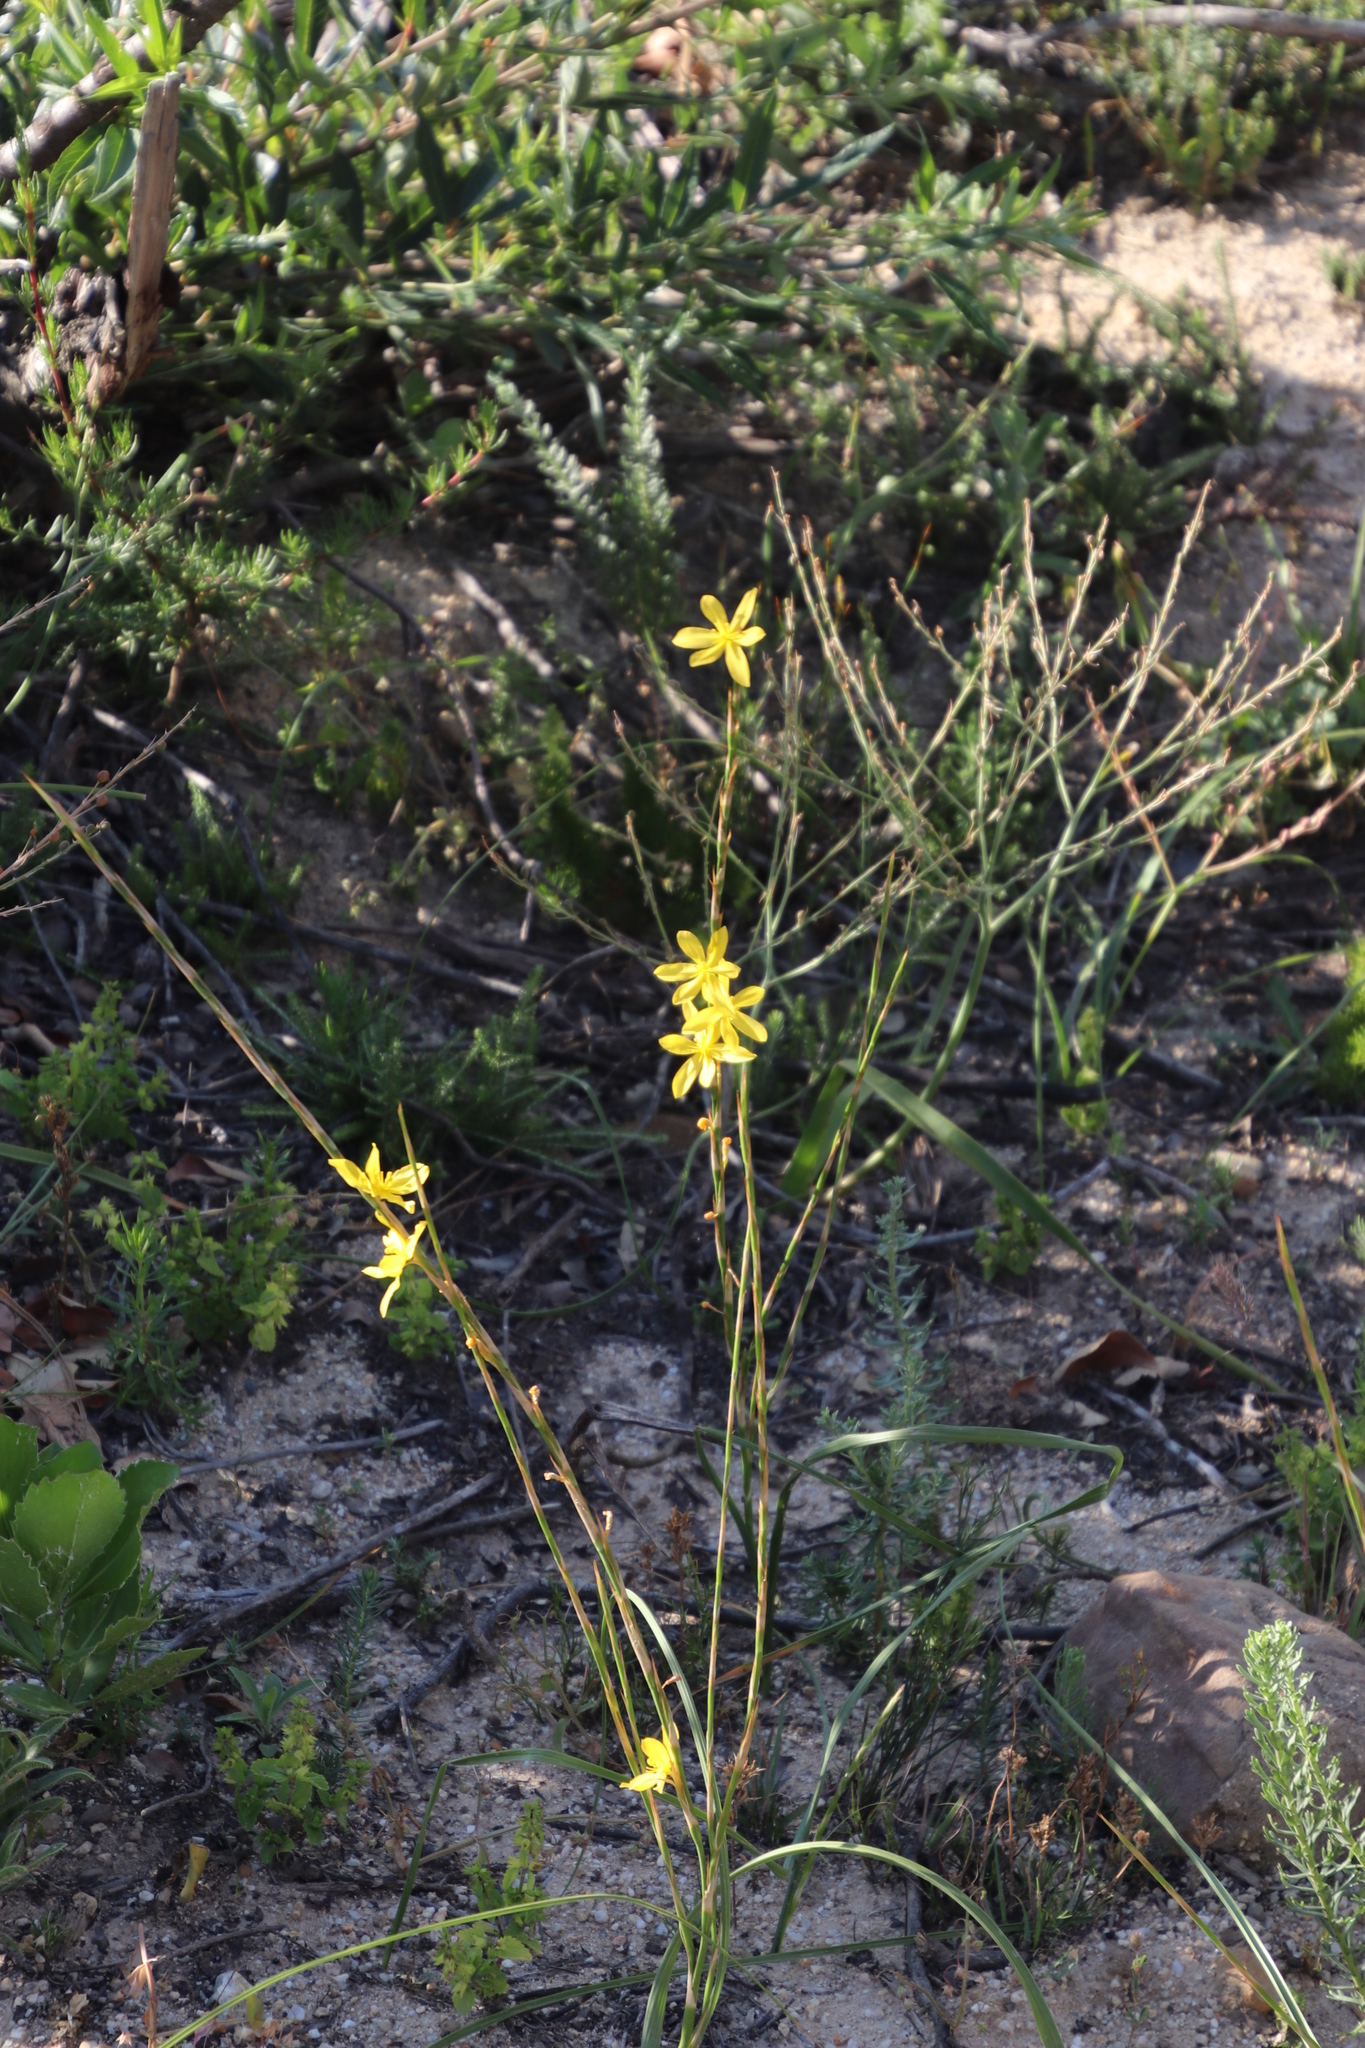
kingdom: Plantae
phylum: Tracheophyta
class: Liliopsida
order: Asparagales
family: Iridaceae
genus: Moraea
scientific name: Moraea lewisiae
